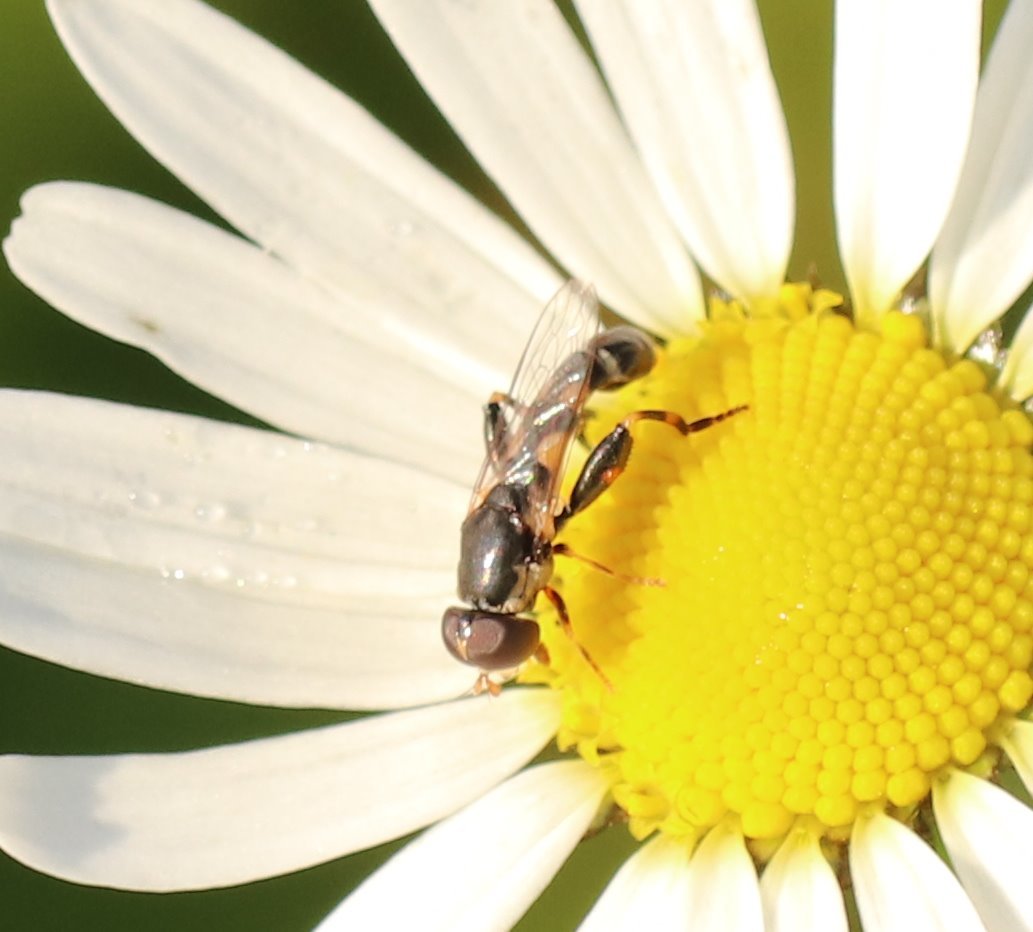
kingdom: Animalia
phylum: Arthropoda
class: Insecta
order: Diptera
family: Syrphidae
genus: Syritta
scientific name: Syritta pipiens
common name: Hover fly
